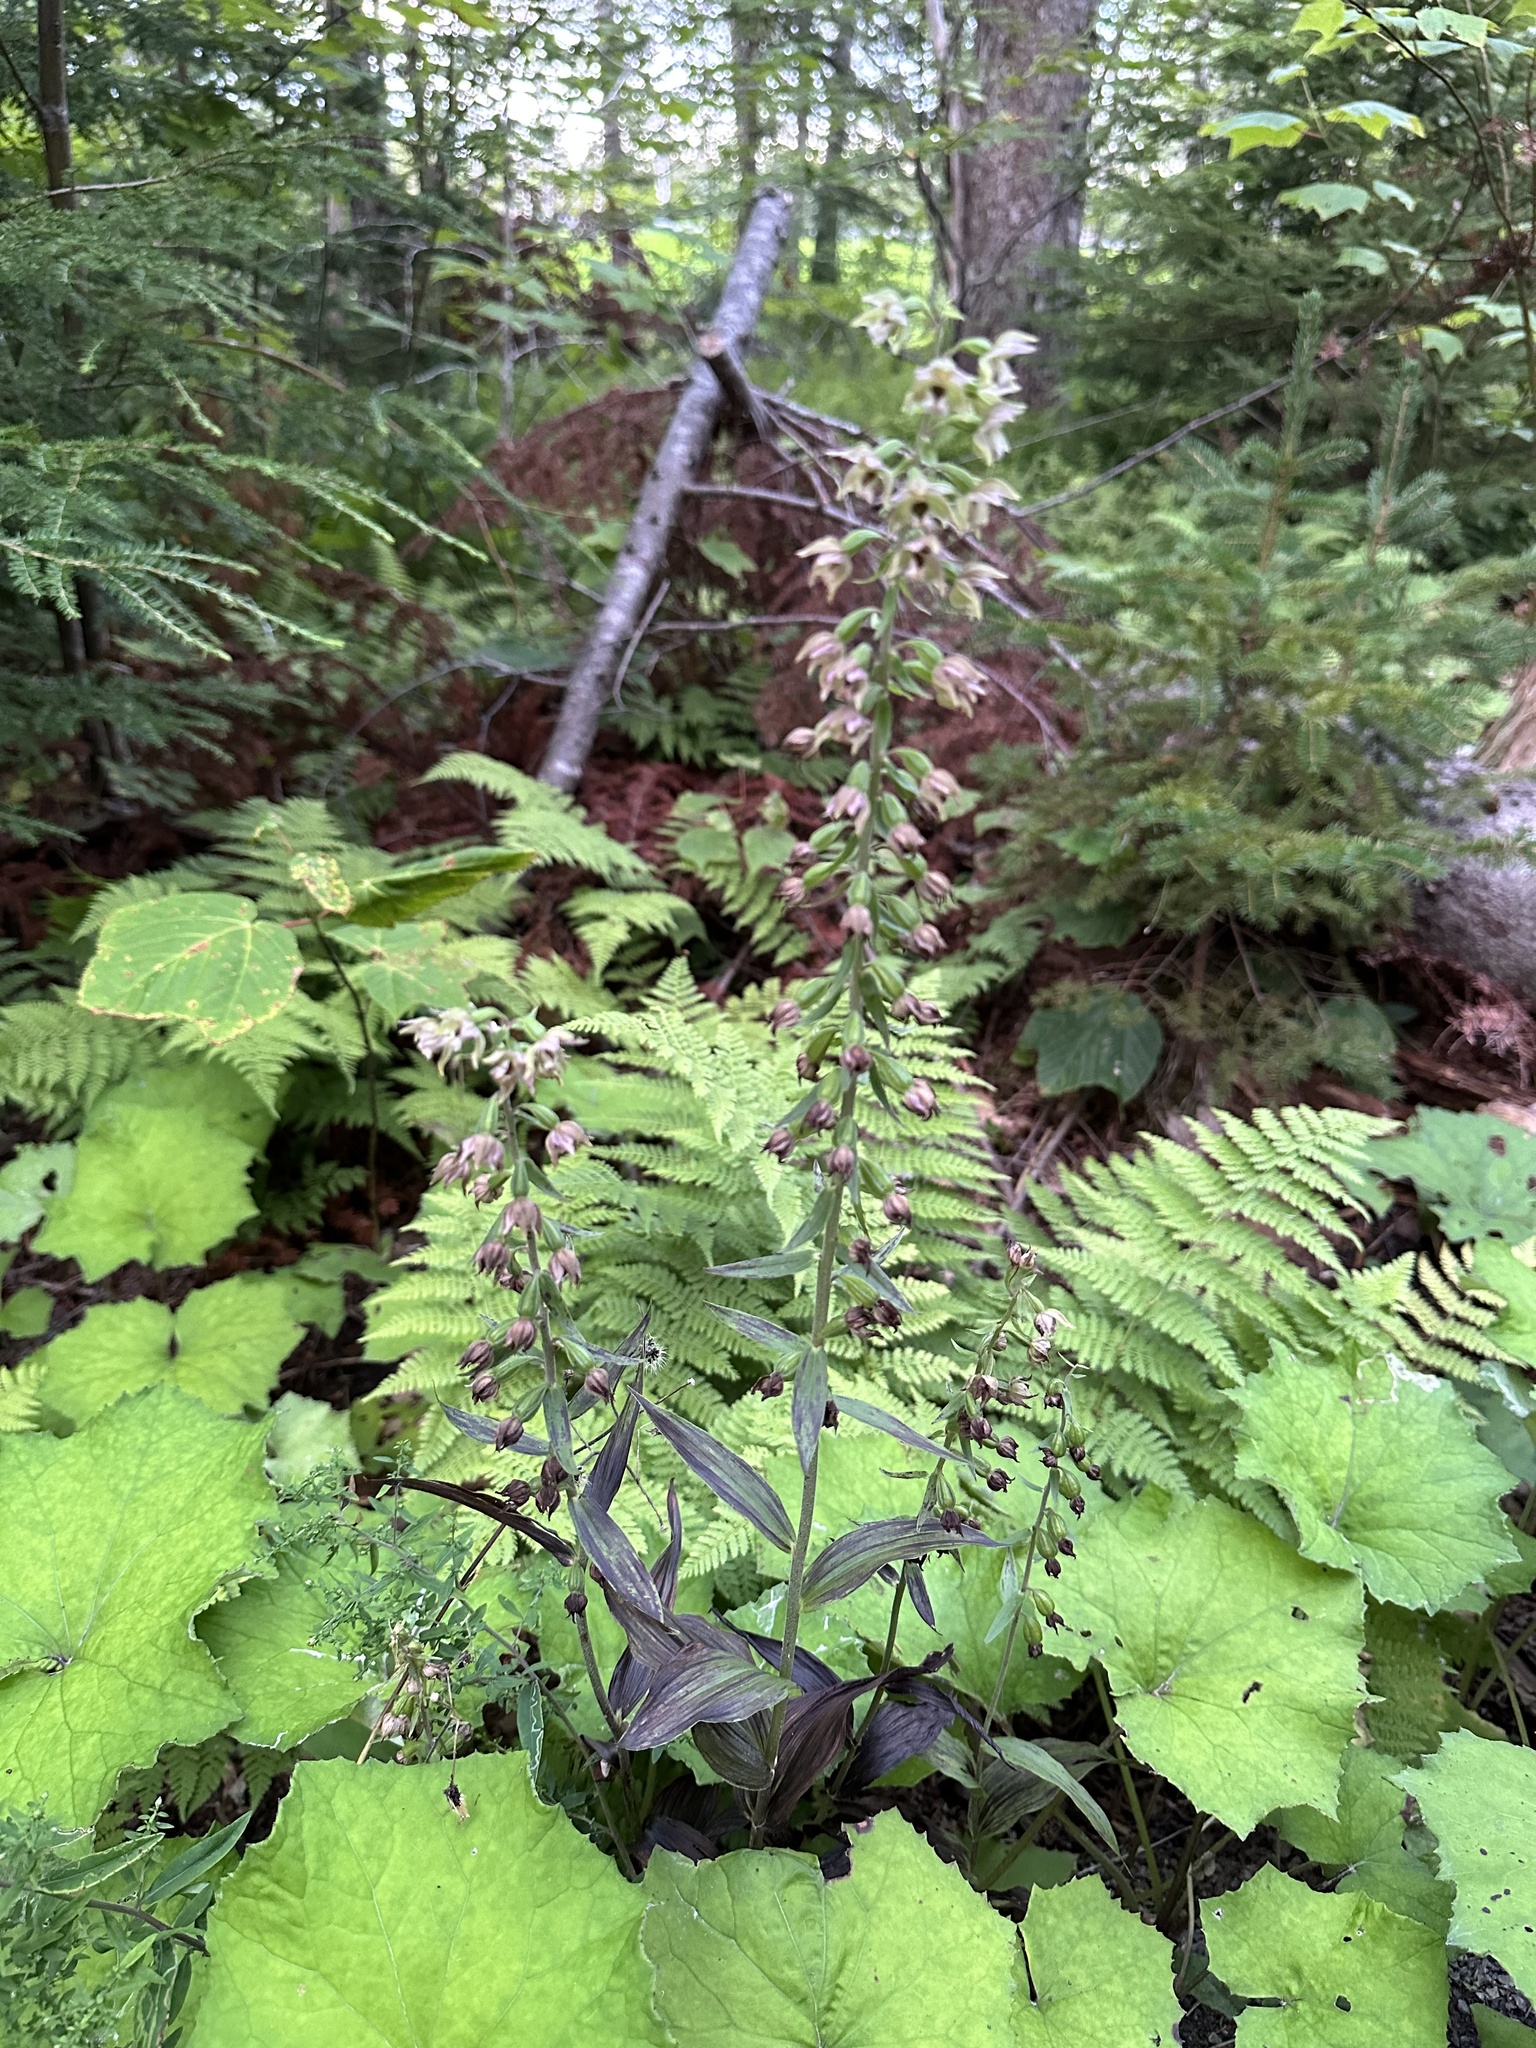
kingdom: Plantae
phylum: Tracheophyta
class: Liliopsida
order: Asparagales
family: Orchidaceae
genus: Epipactis
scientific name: Epipactis helleborine
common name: Broad-leaved helleborine
